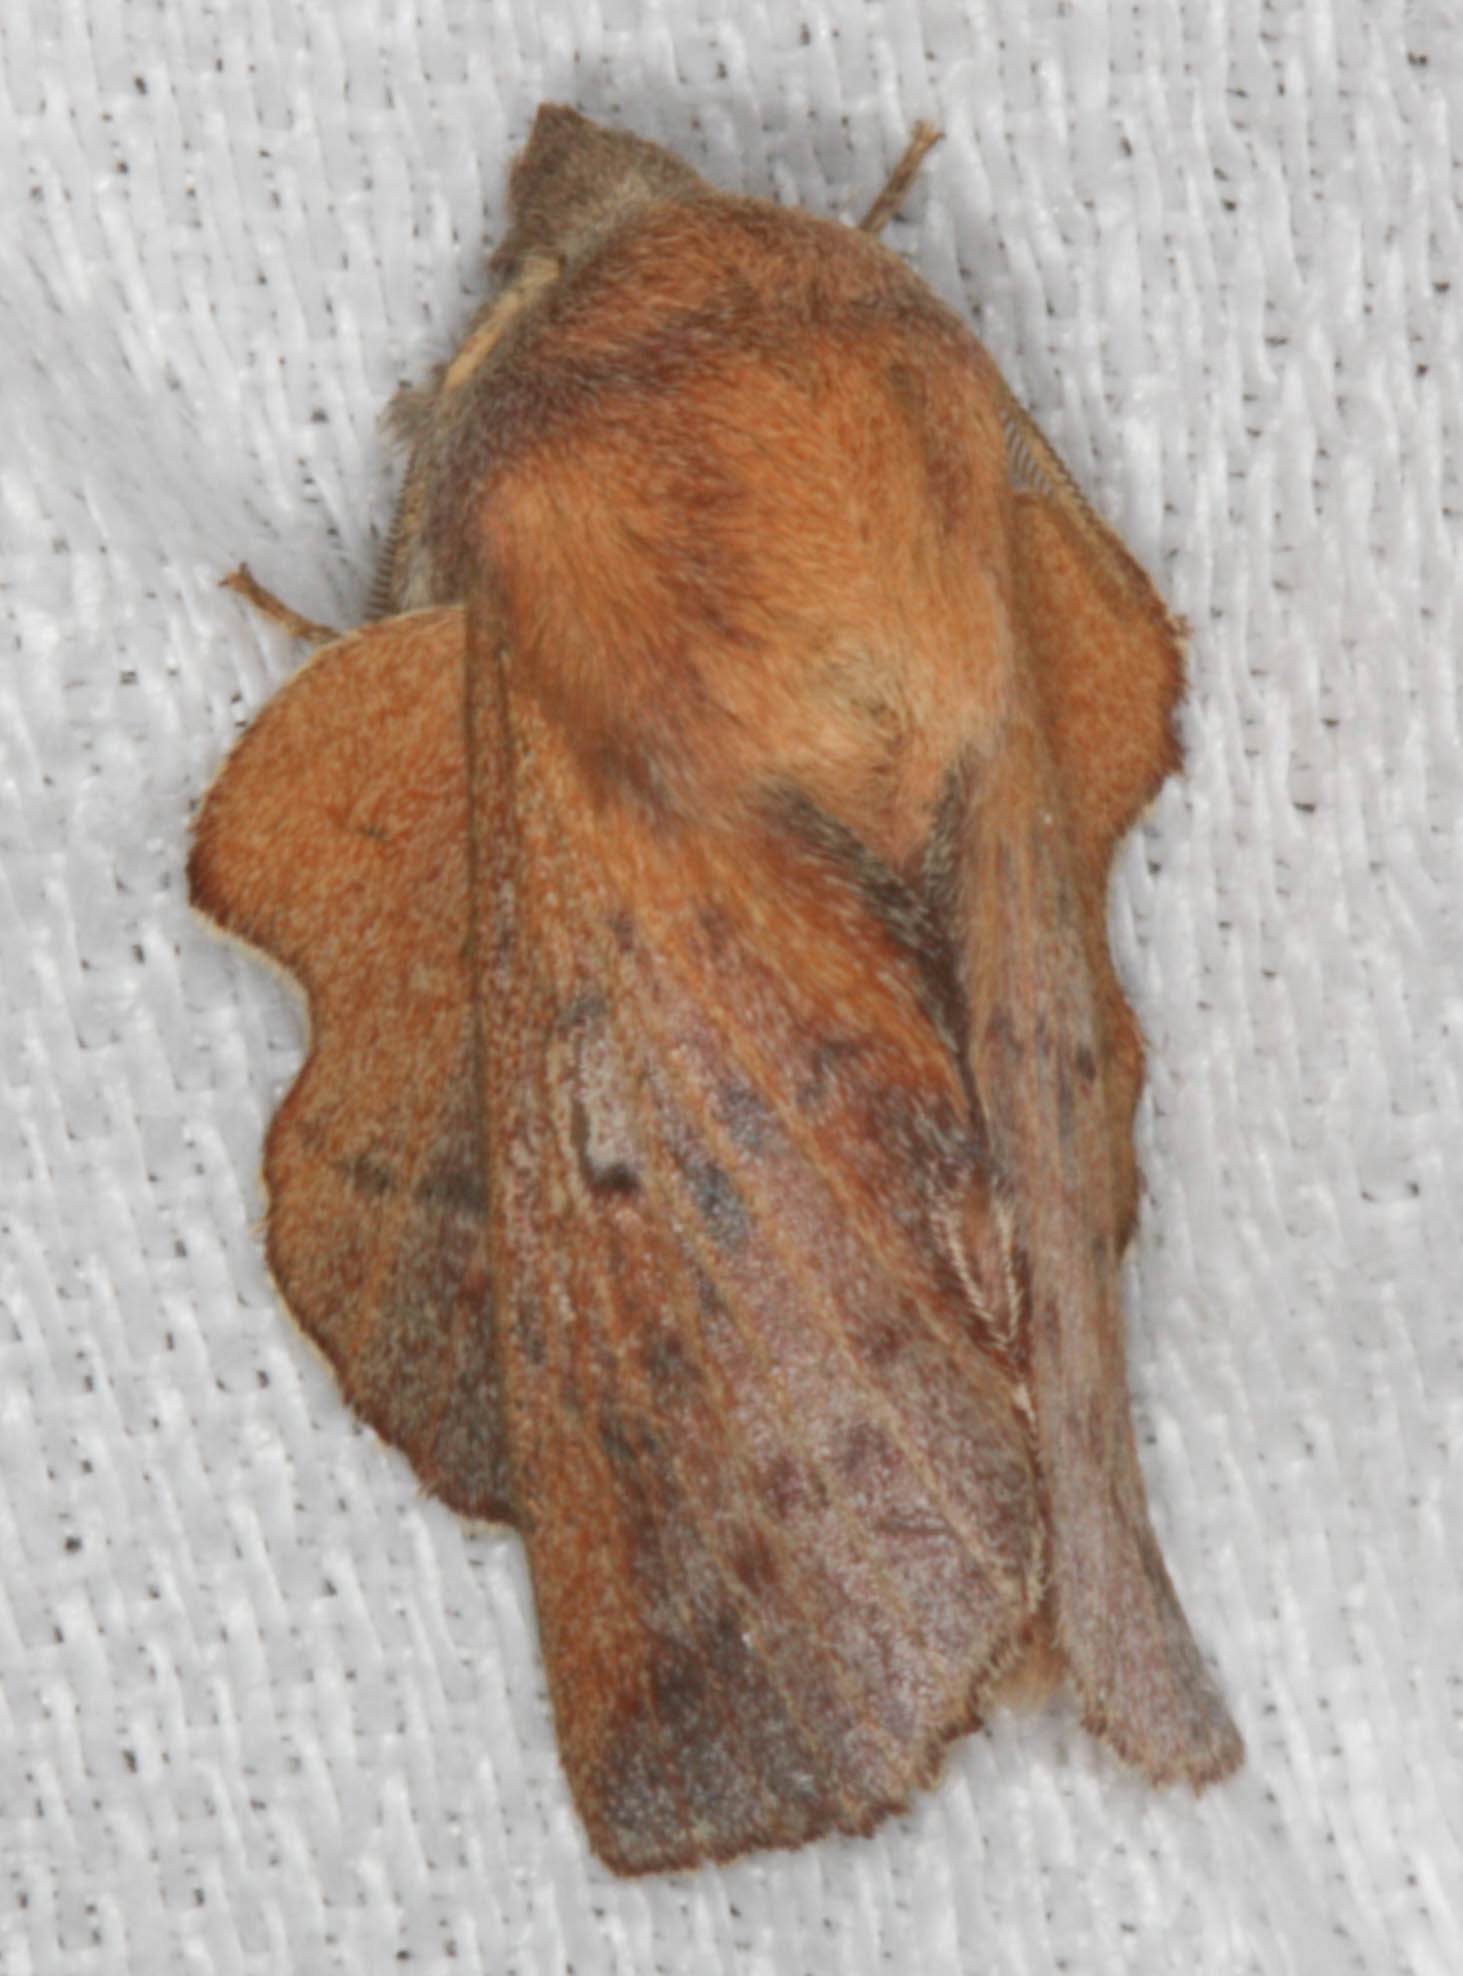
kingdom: Animalia
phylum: Arthropoda
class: Insecta
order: Lepidoptera
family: Lasiocampidae
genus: Phyllodesma
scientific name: Phyllodesma americana
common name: American lappet moth
